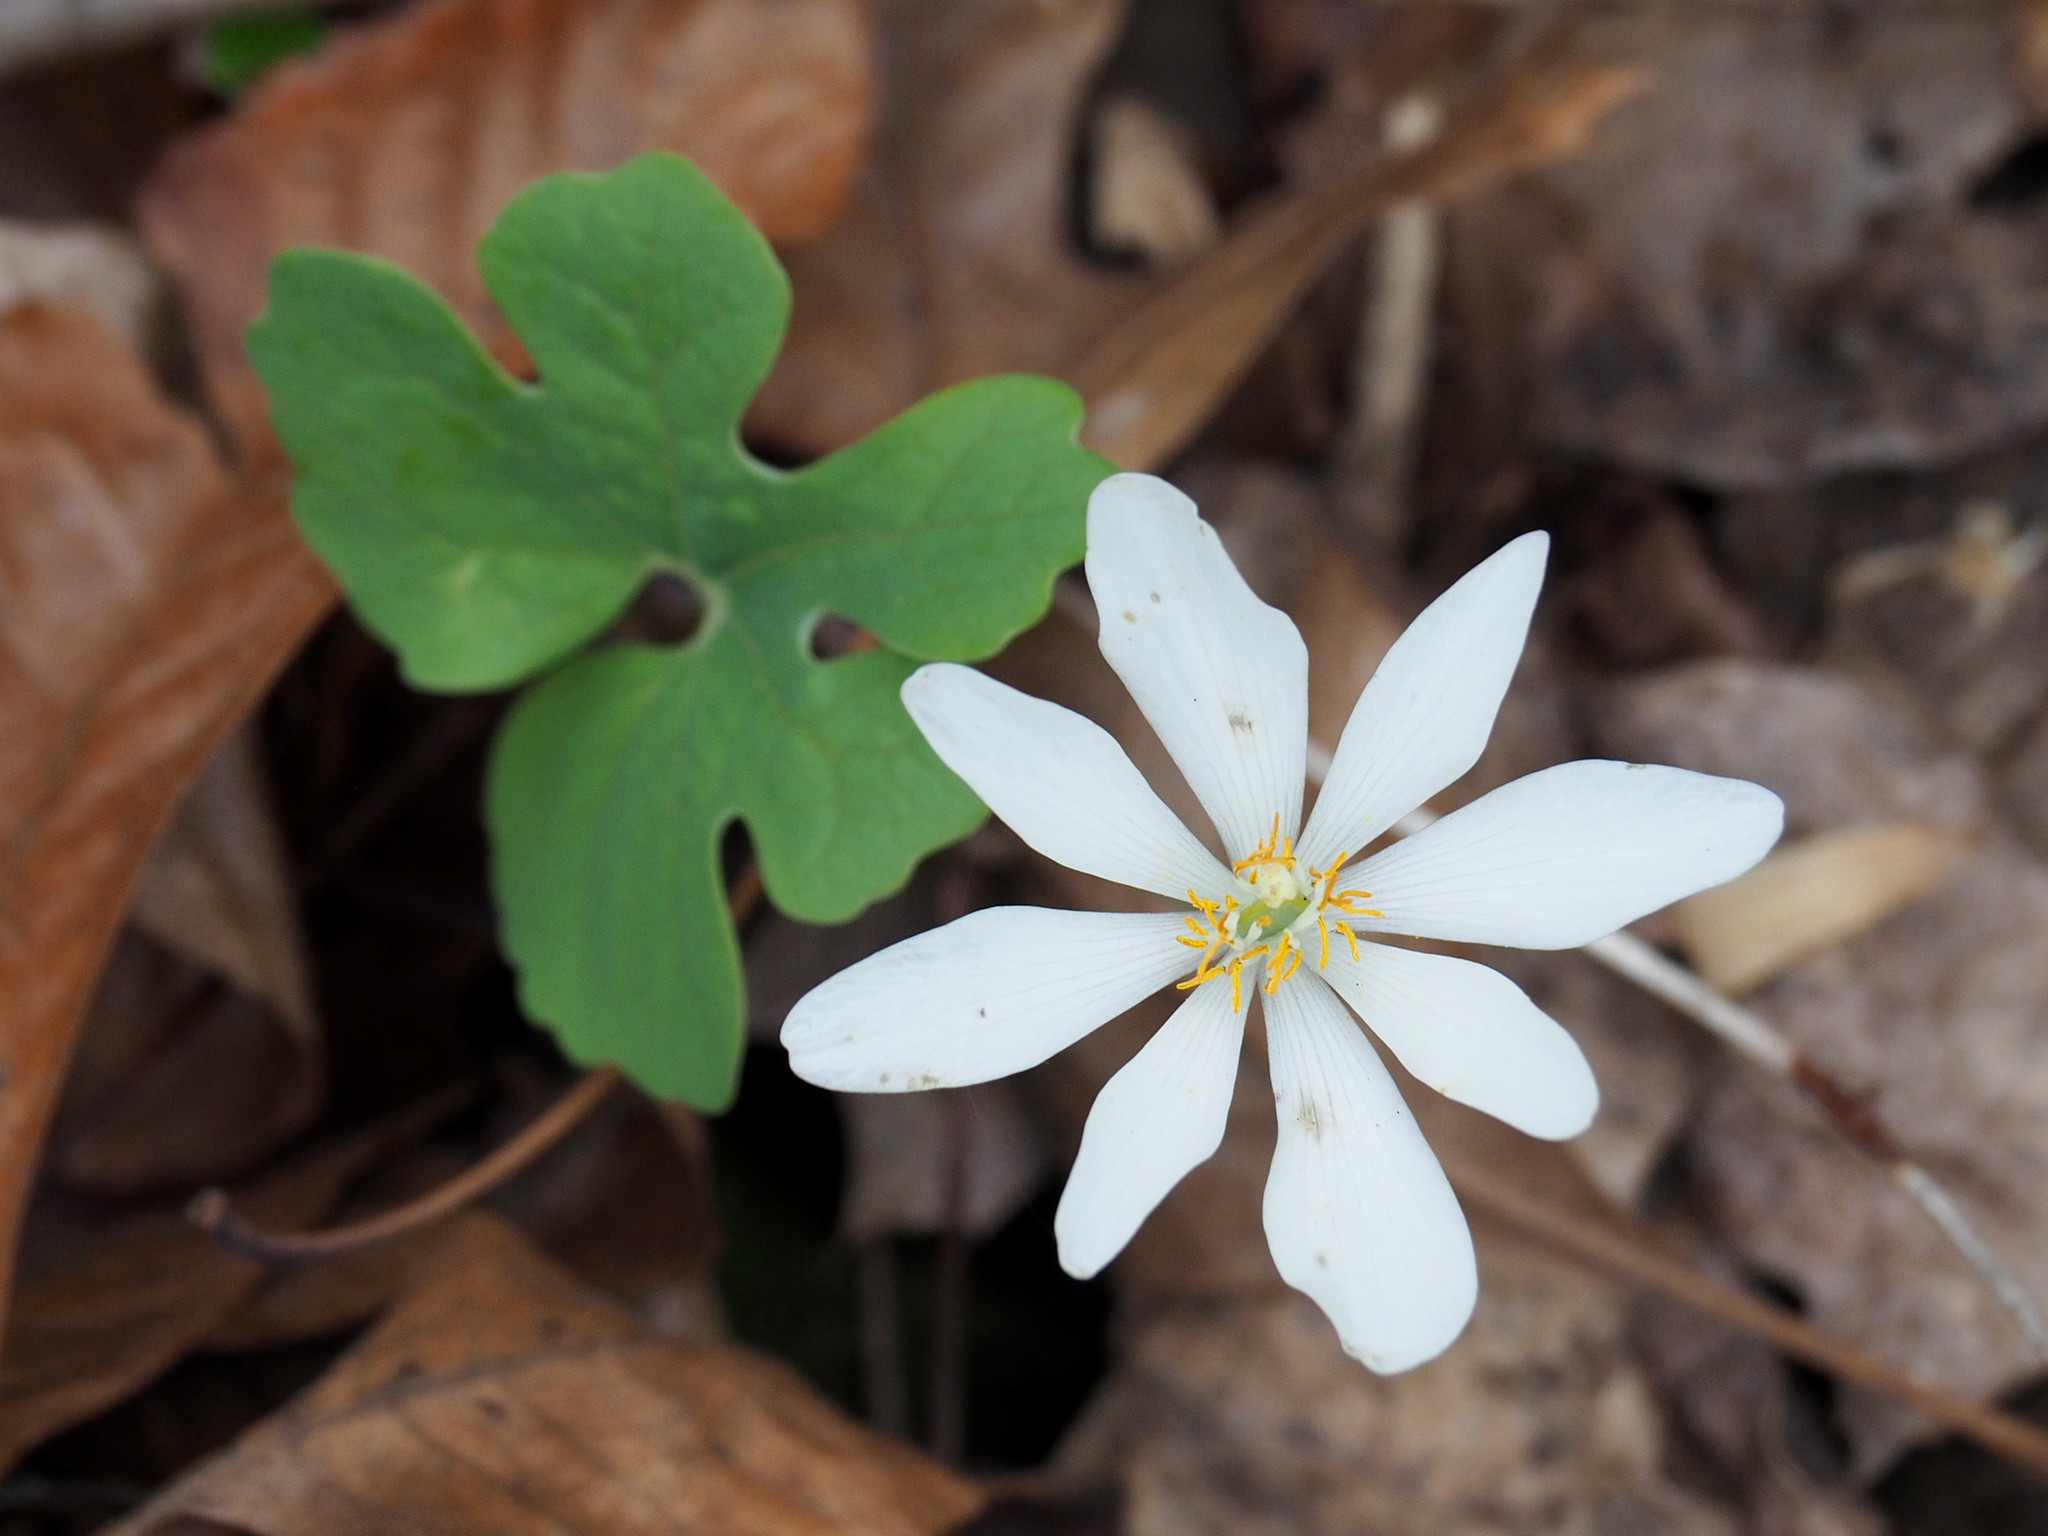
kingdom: Plantae
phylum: Tracheophyta
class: Magnoliopsida
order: Ranunculales
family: Papaveraceae
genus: Sanguinaria
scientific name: Sanguinaria canadensis
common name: Bloodroot
